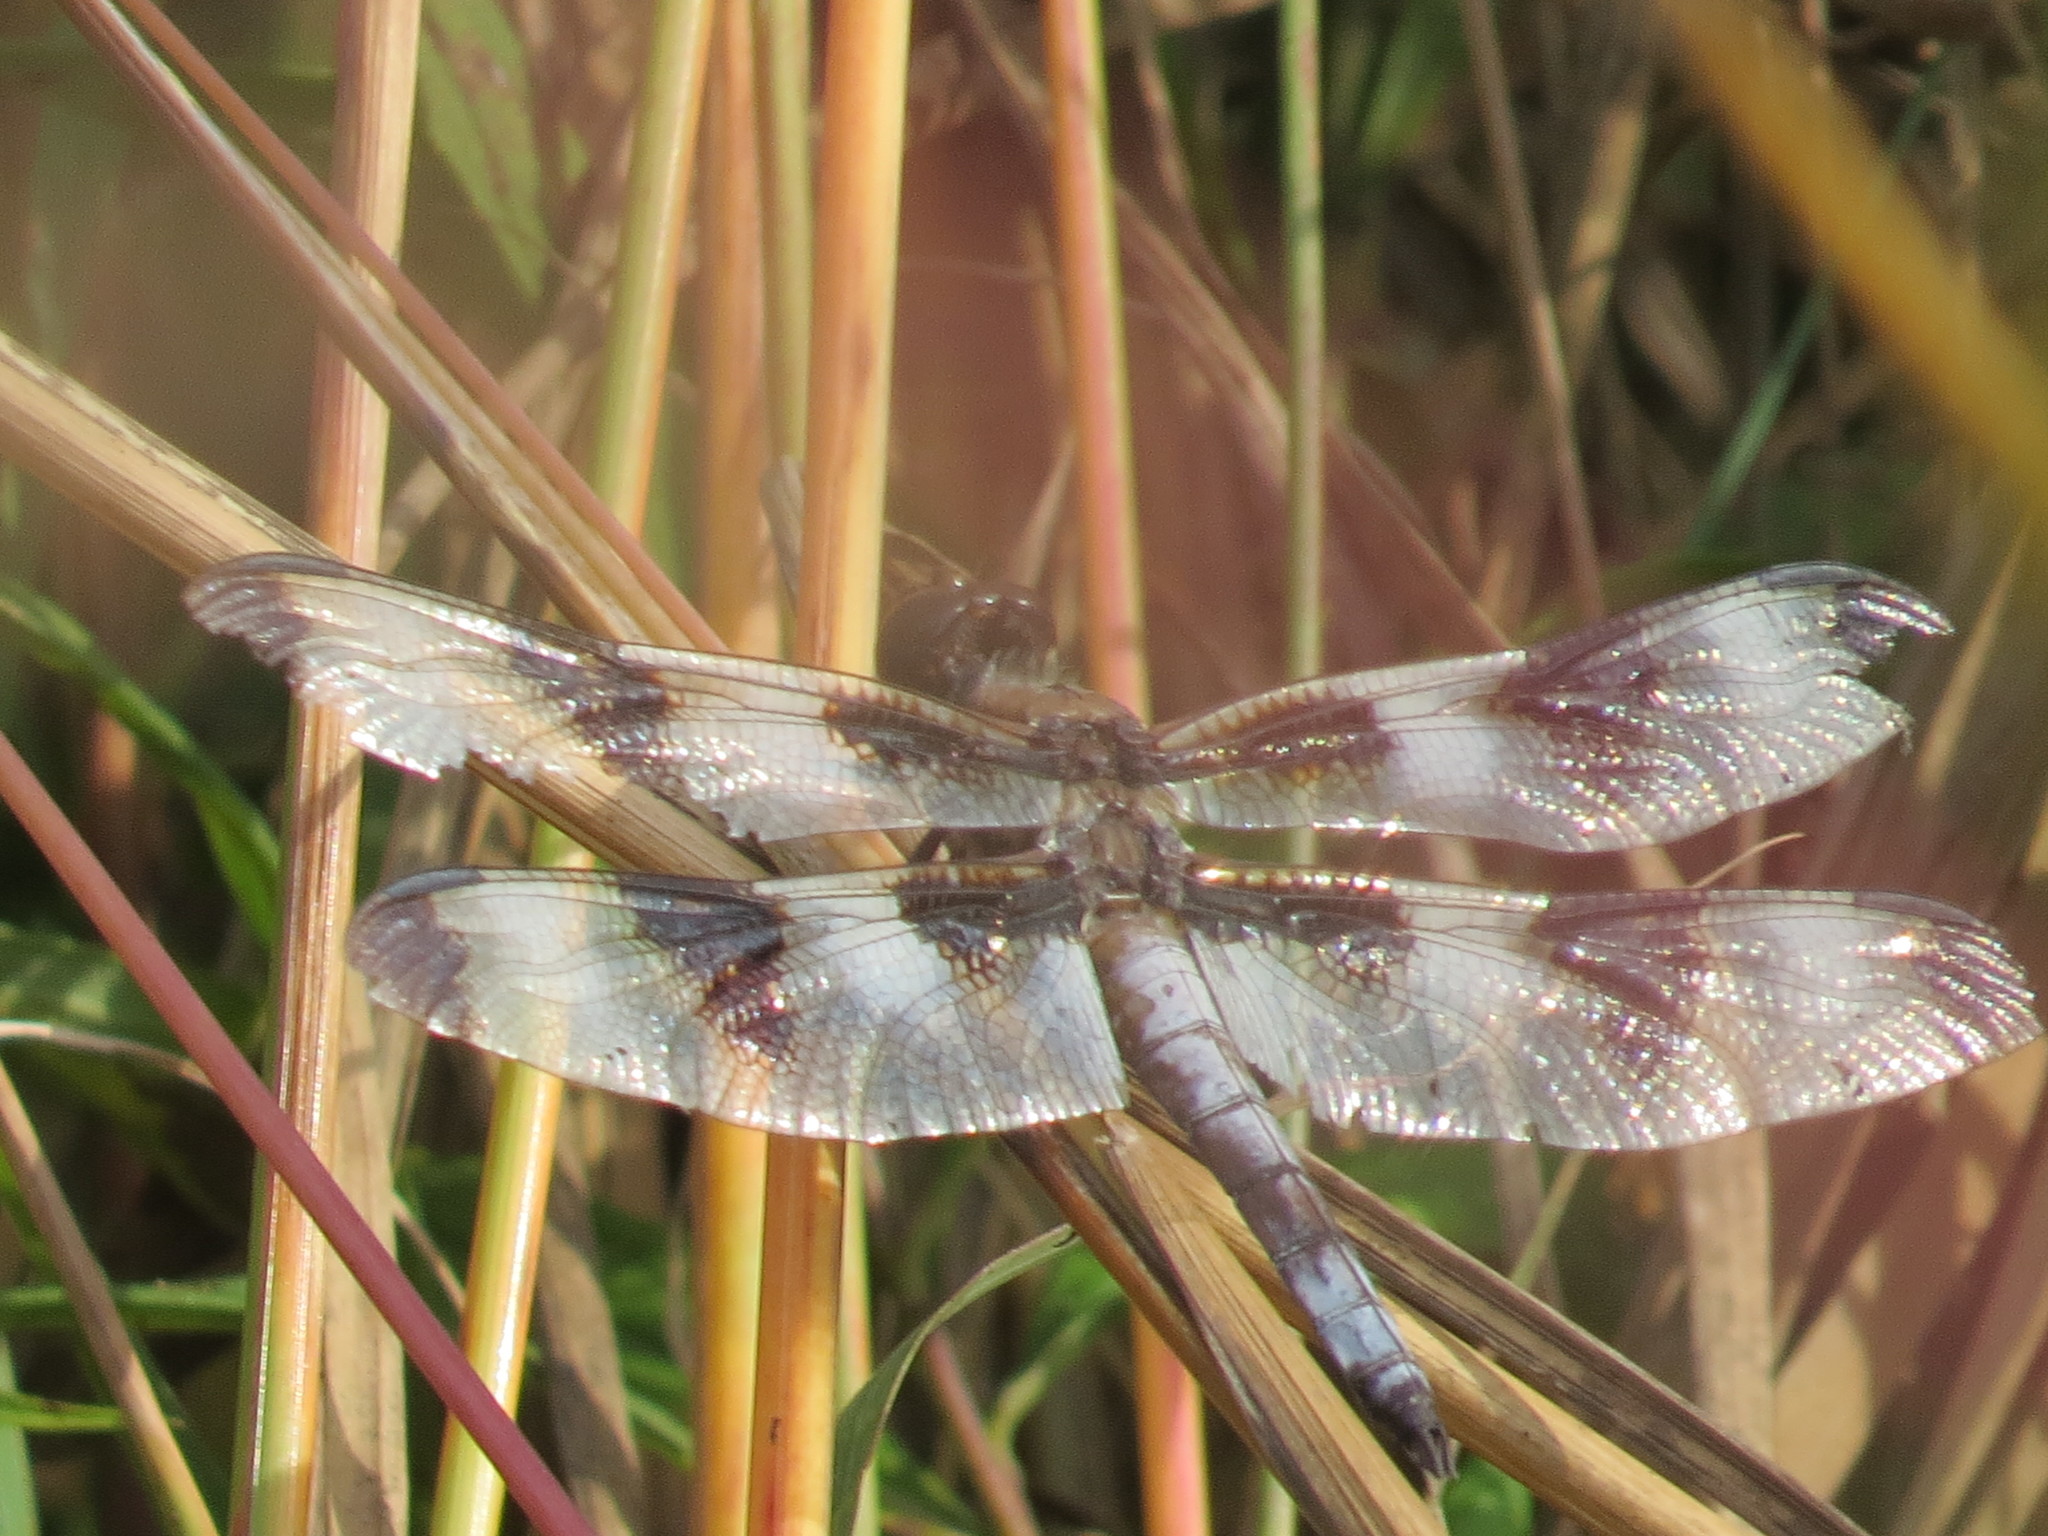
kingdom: Animalia
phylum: Arthropoda
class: Insecta
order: Odonata
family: Libellulidae
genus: Libellula
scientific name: Libellula pulchella
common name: Twelve-spotted skimmer
